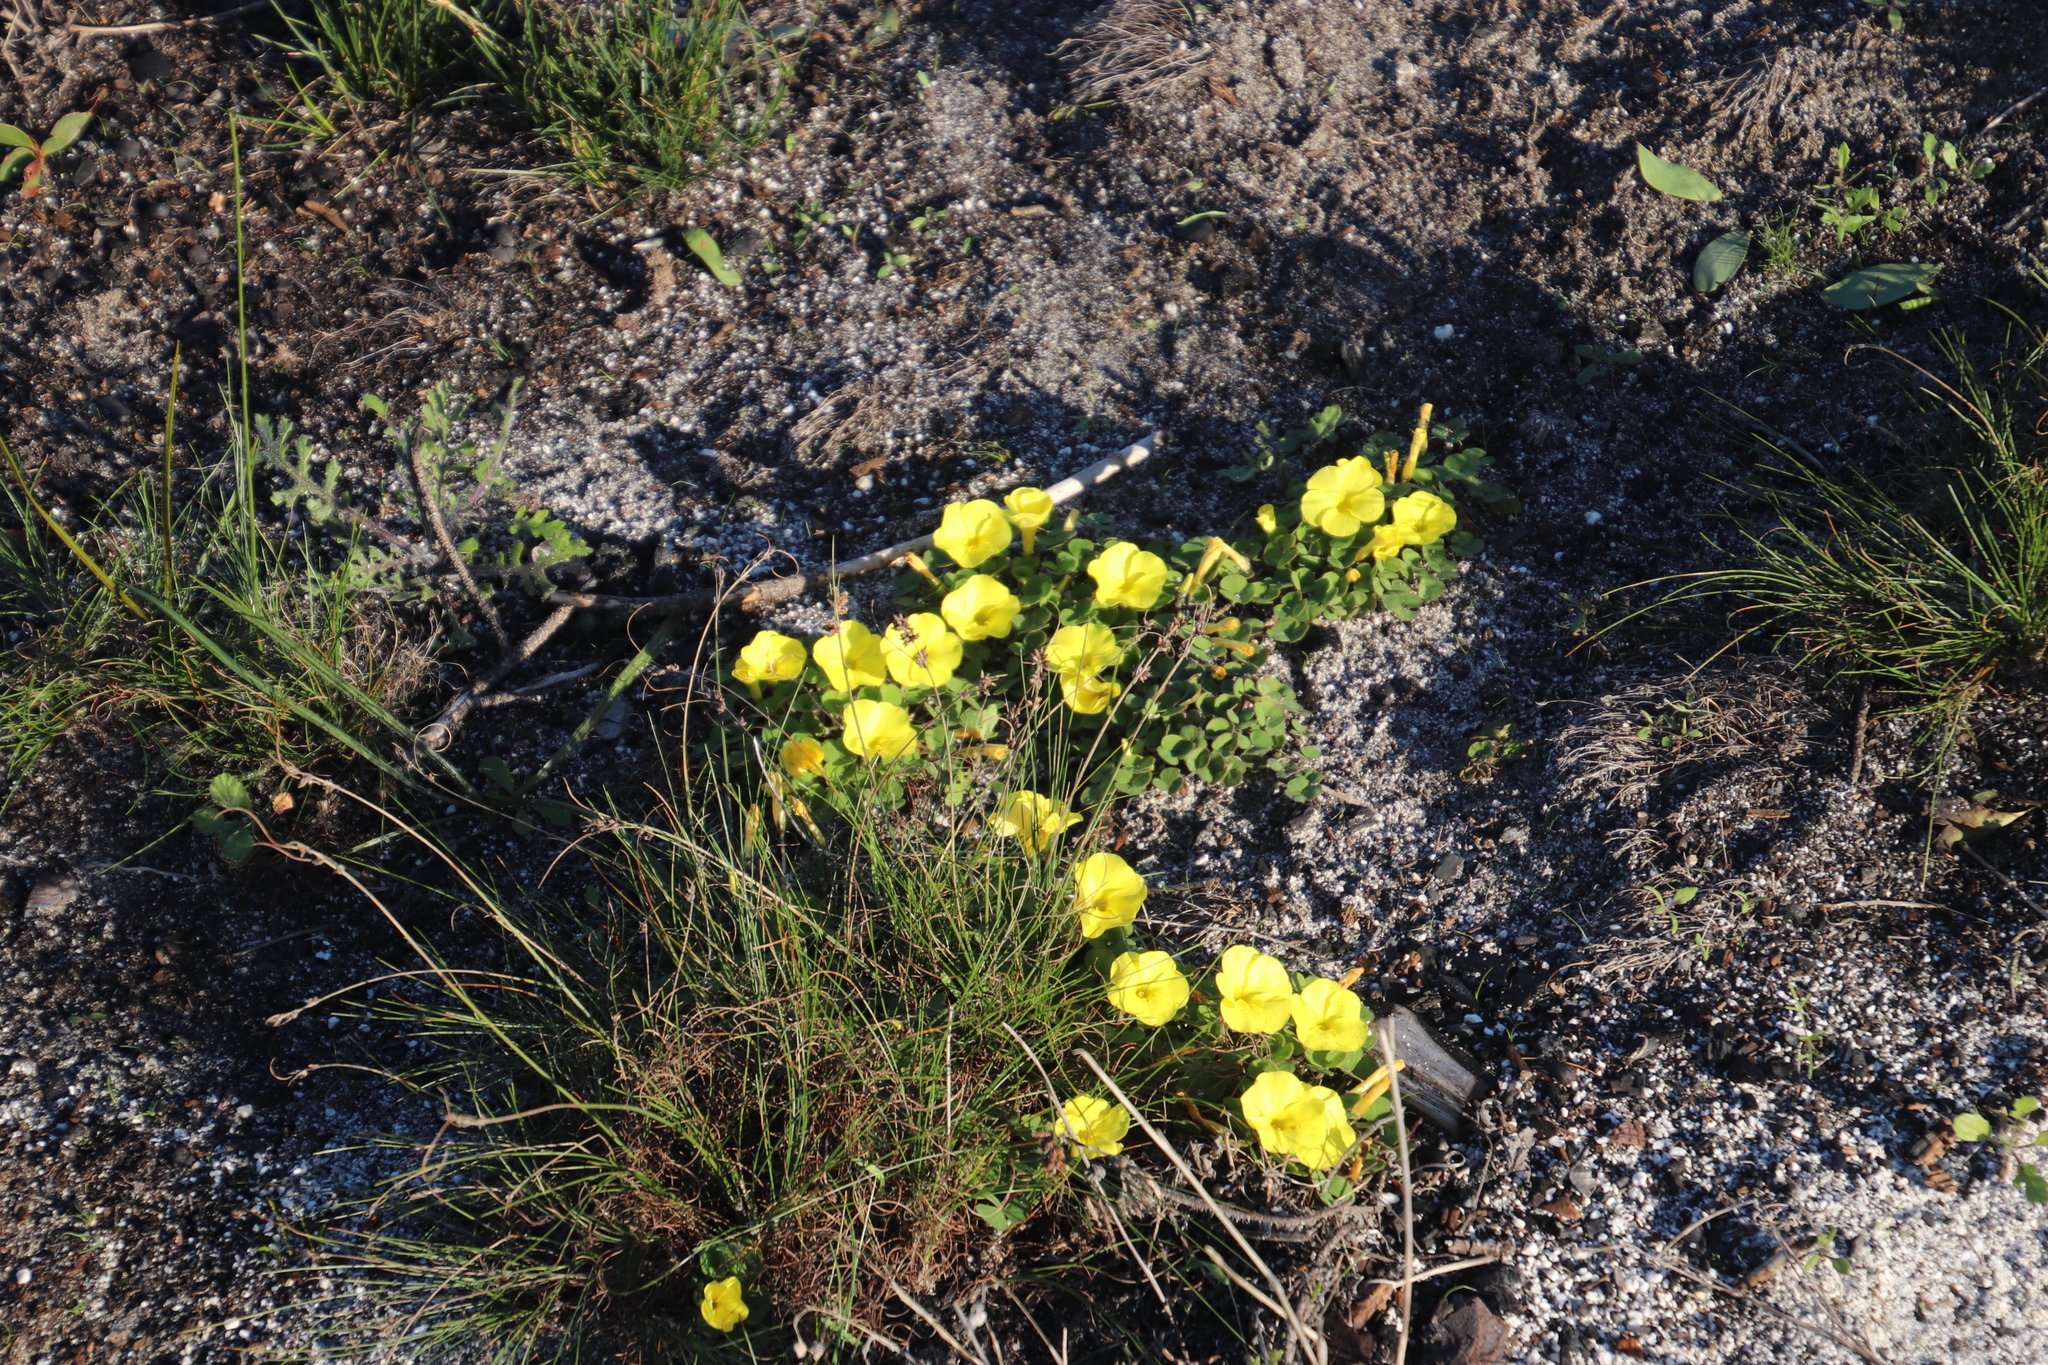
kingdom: Plantae
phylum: Tracheophyta
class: Magnoliopsida
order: Oxalidales
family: Oxalidaceae
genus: Oxalis
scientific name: Oxalis luteola
